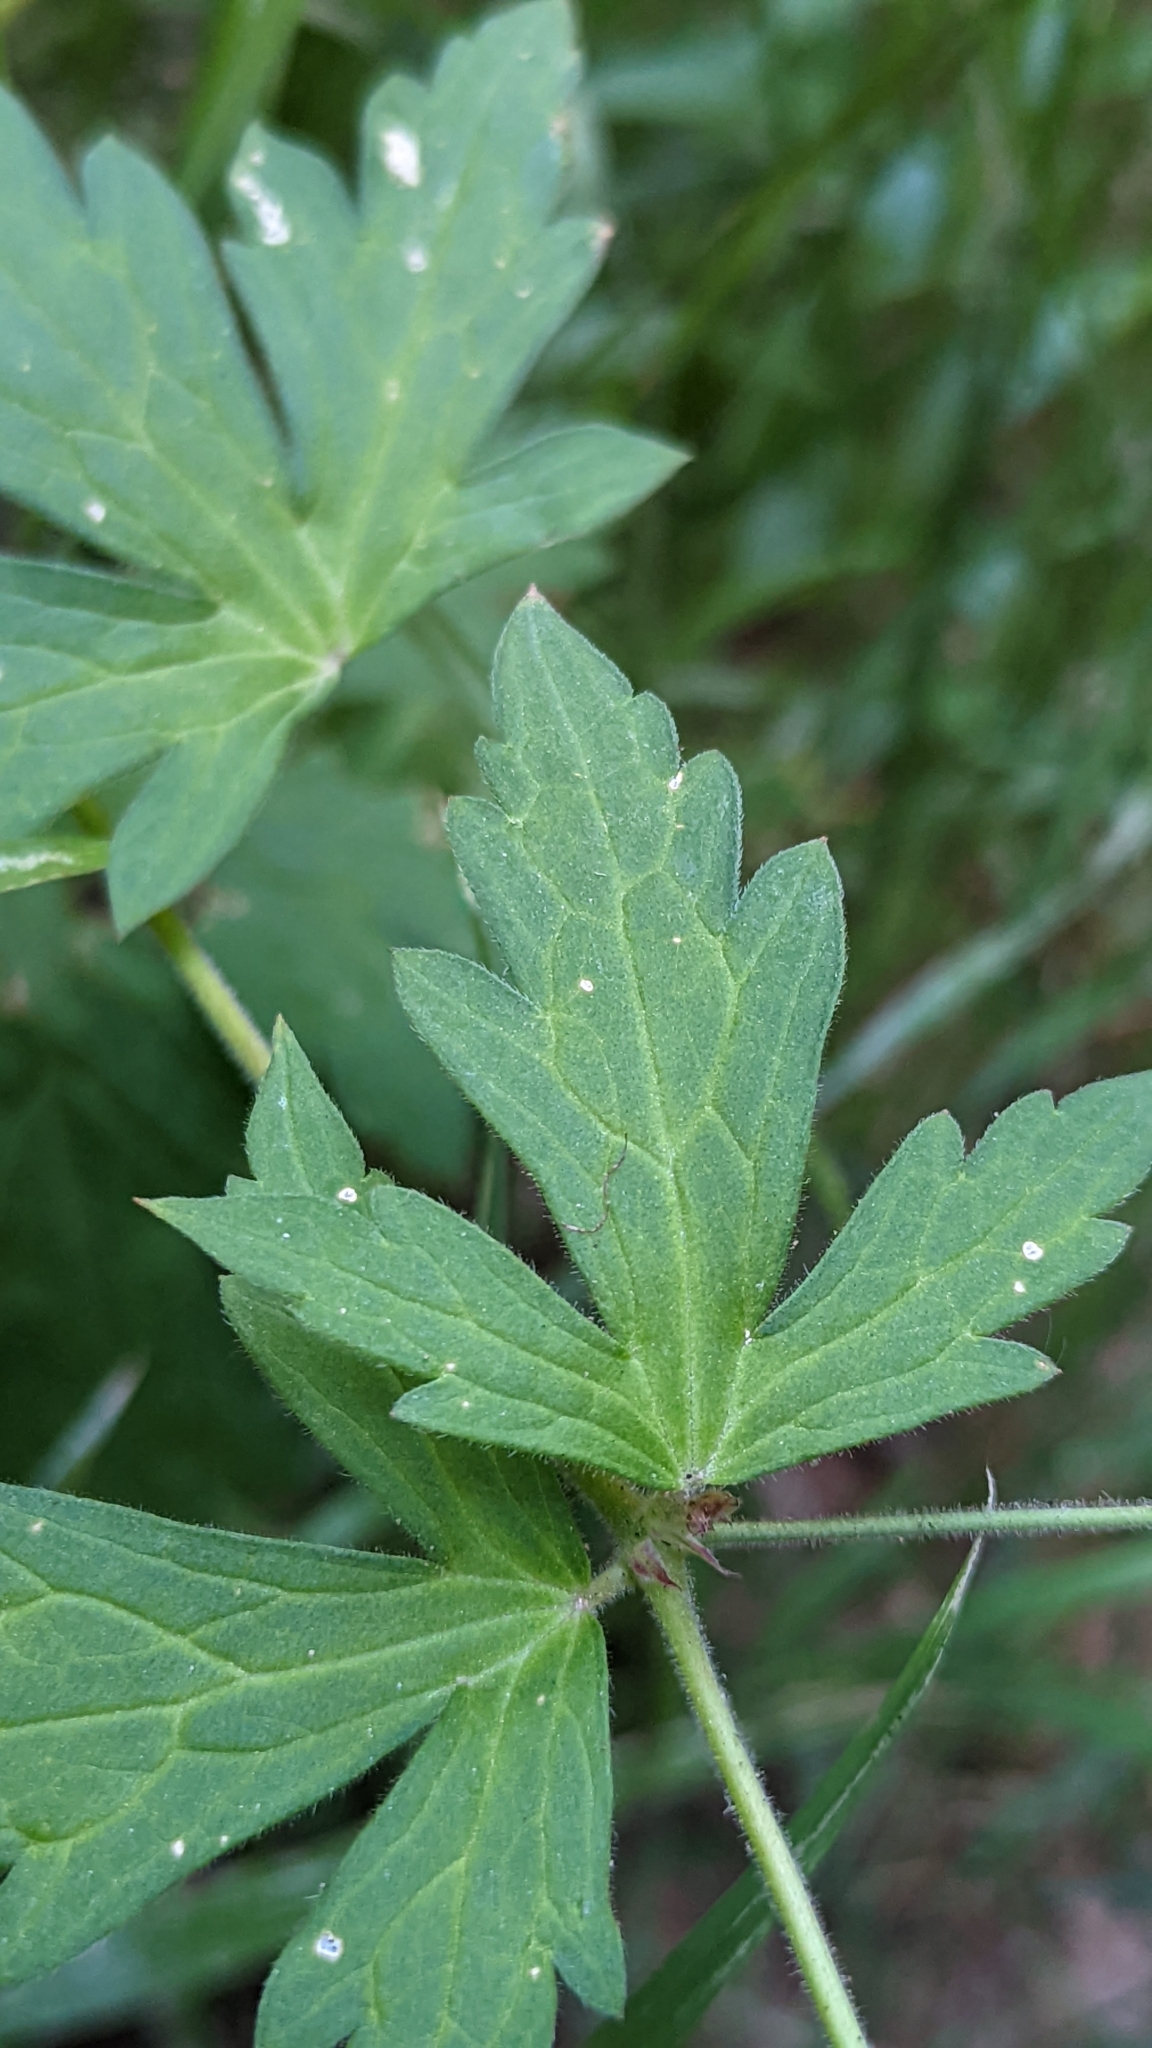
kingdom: Plantae
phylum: Tracheophyta
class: Magnoliopsida
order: Geraniales
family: Geraniaceae
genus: Geranium
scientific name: Geranium richardsonii
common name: Richardson's crane's-bill
